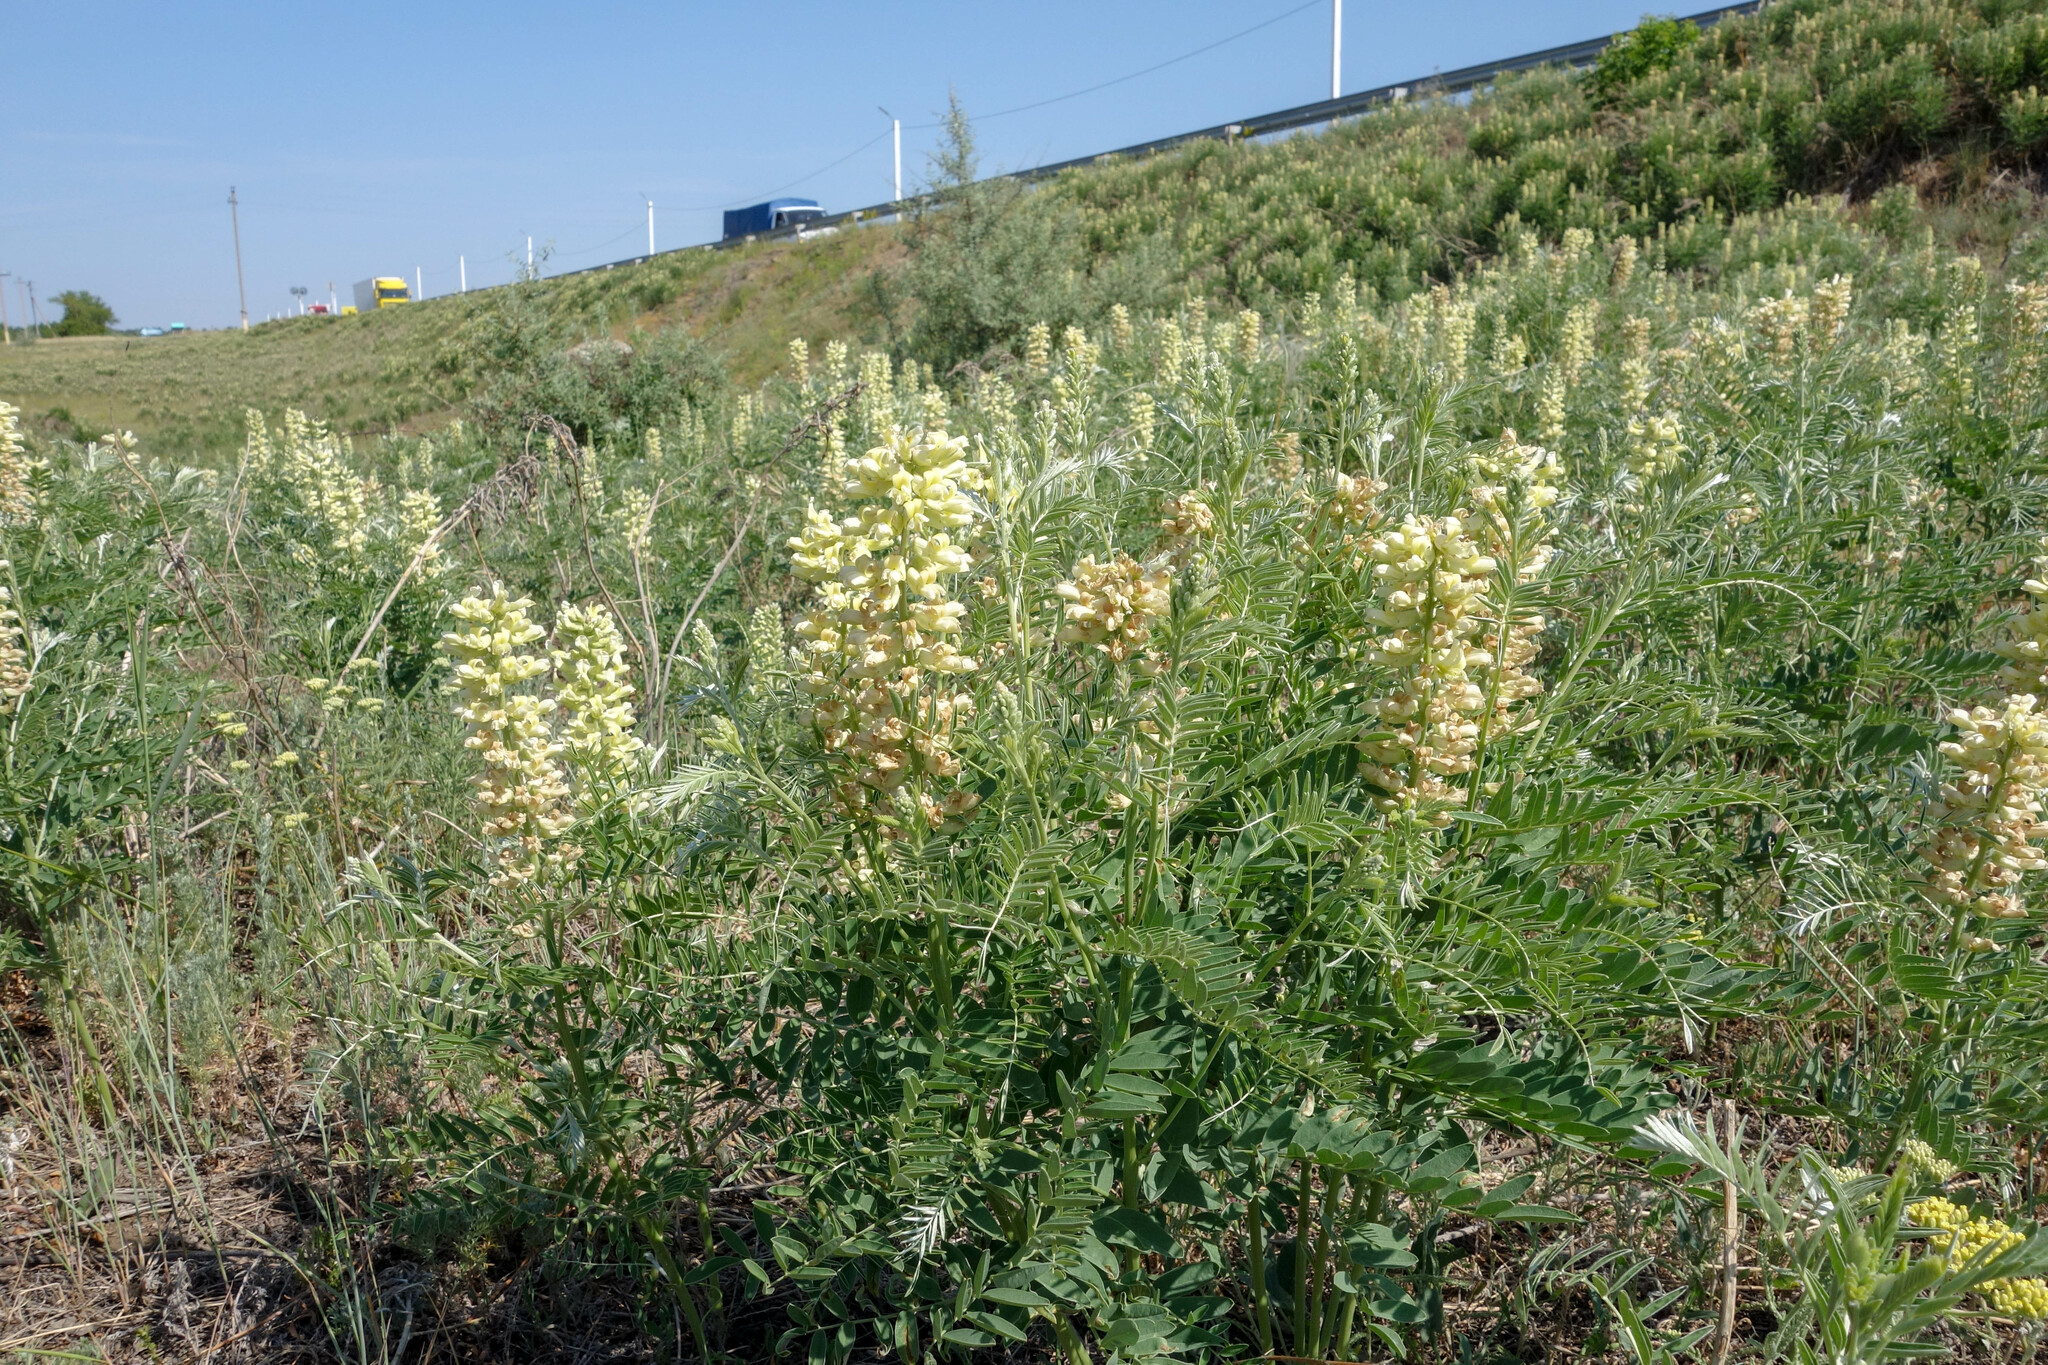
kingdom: Plantae
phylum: Tracheophyta
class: Magnoliopsida
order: Fabales
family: Fabaceae
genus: Sophora
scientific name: Sophora alopecuroides
